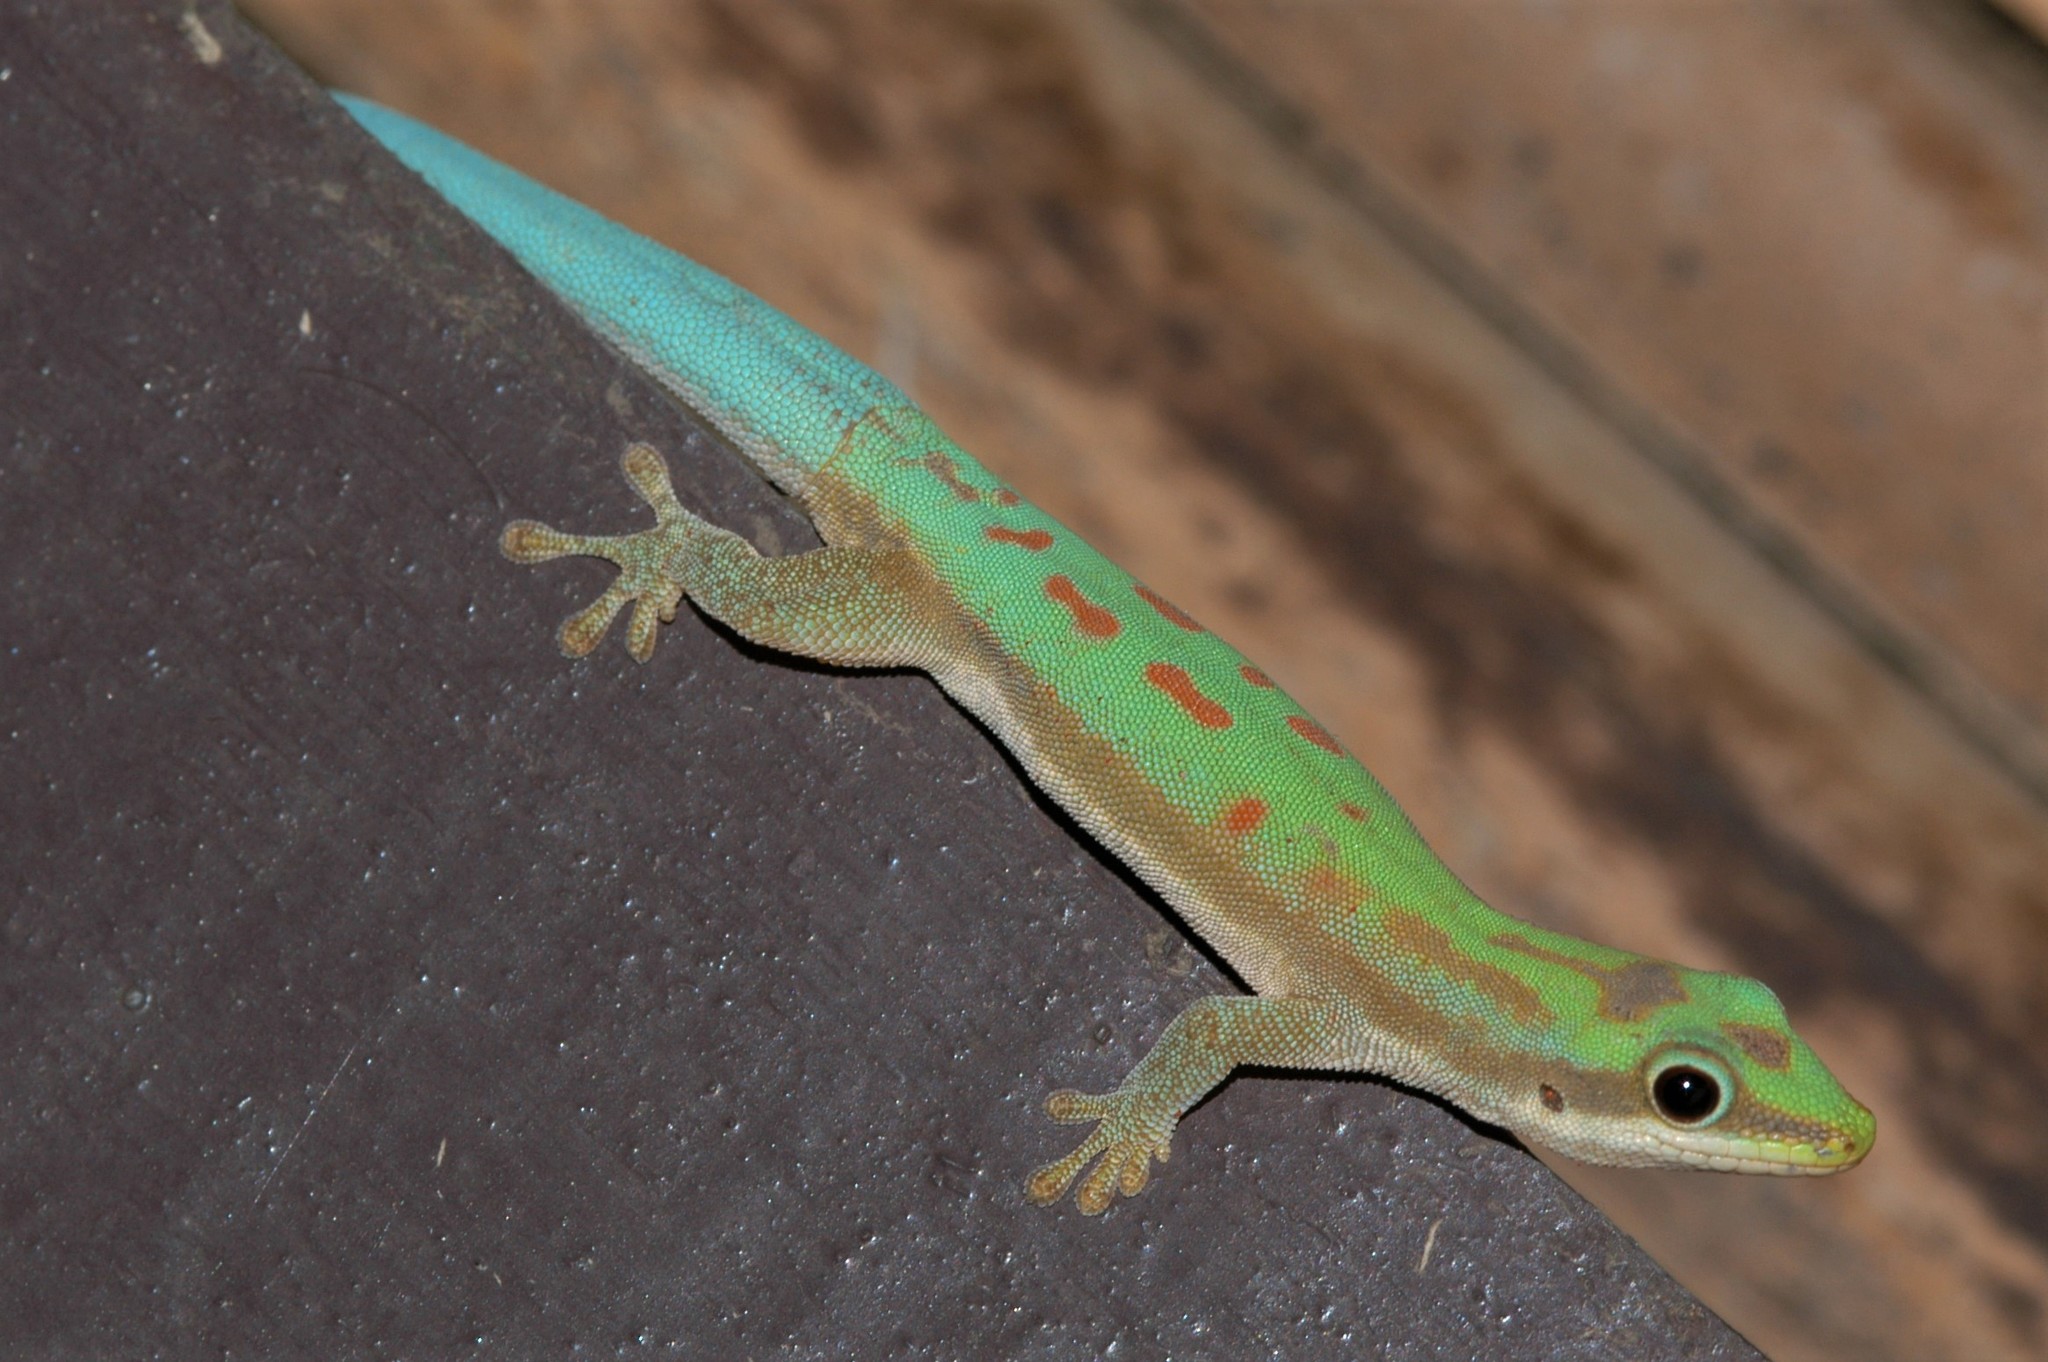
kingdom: Animalia
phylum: Chordata
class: Squamata
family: Gekkonidae
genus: Phelsuma
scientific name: Phelsuma modesta
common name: Modest day gecko
